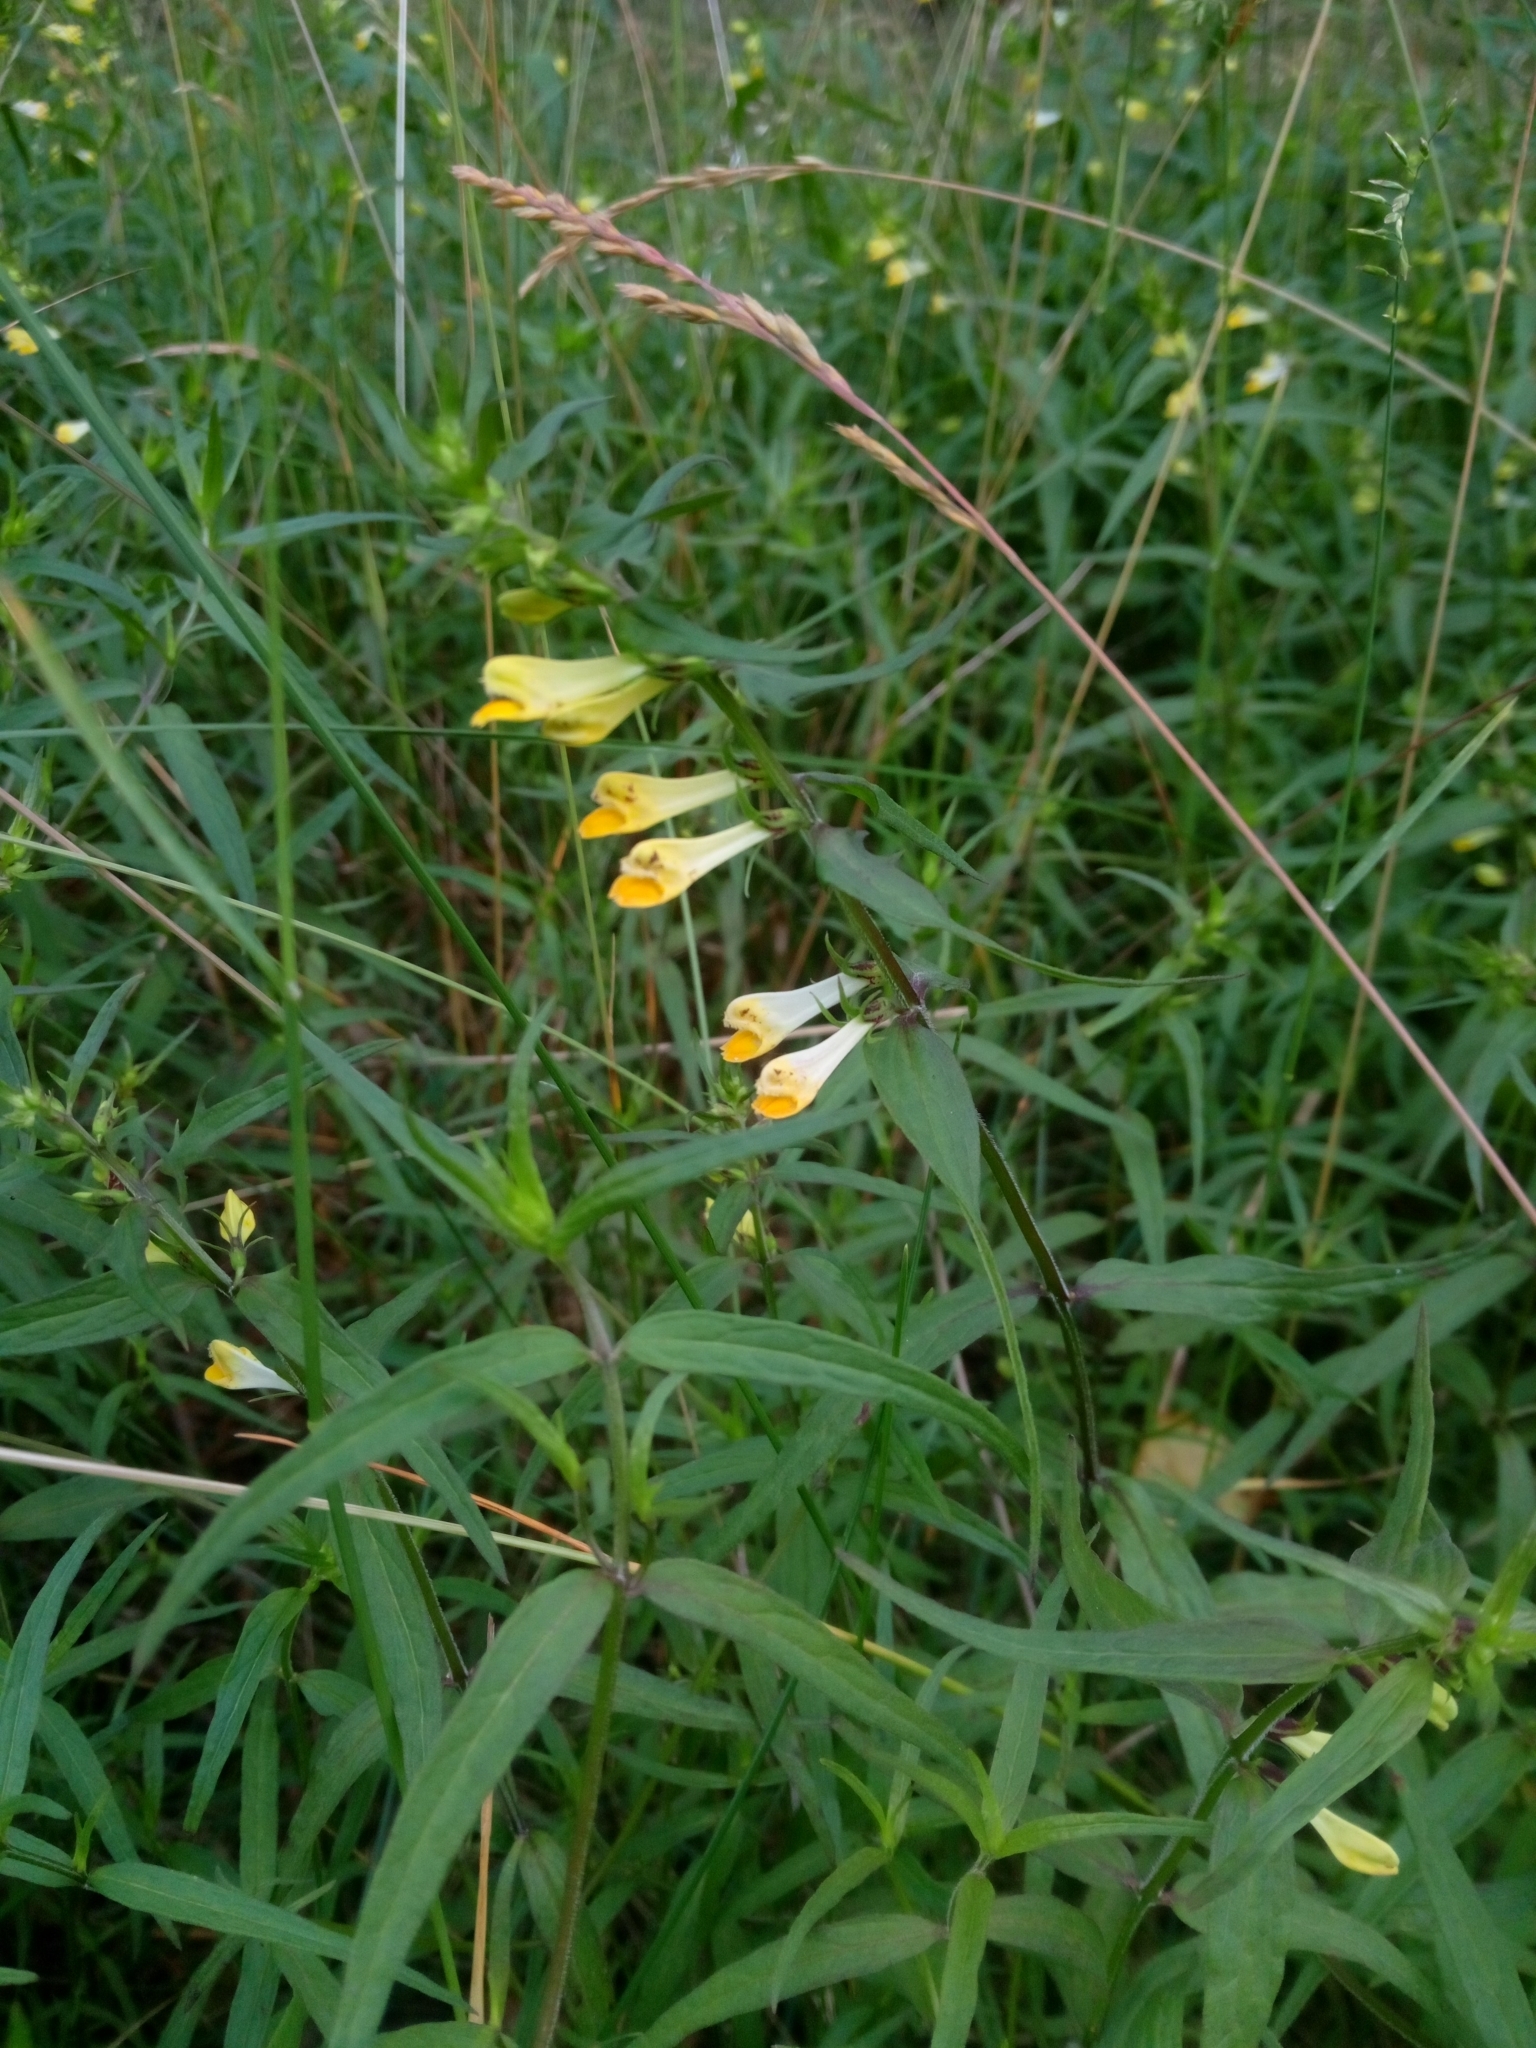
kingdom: Plantae
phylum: Tracheophyta
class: Magnoliopsida
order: Lamiales
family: Orobanchaceae
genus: Melampyrum
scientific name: Melampyrum pratense
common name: Common cow-wheat
